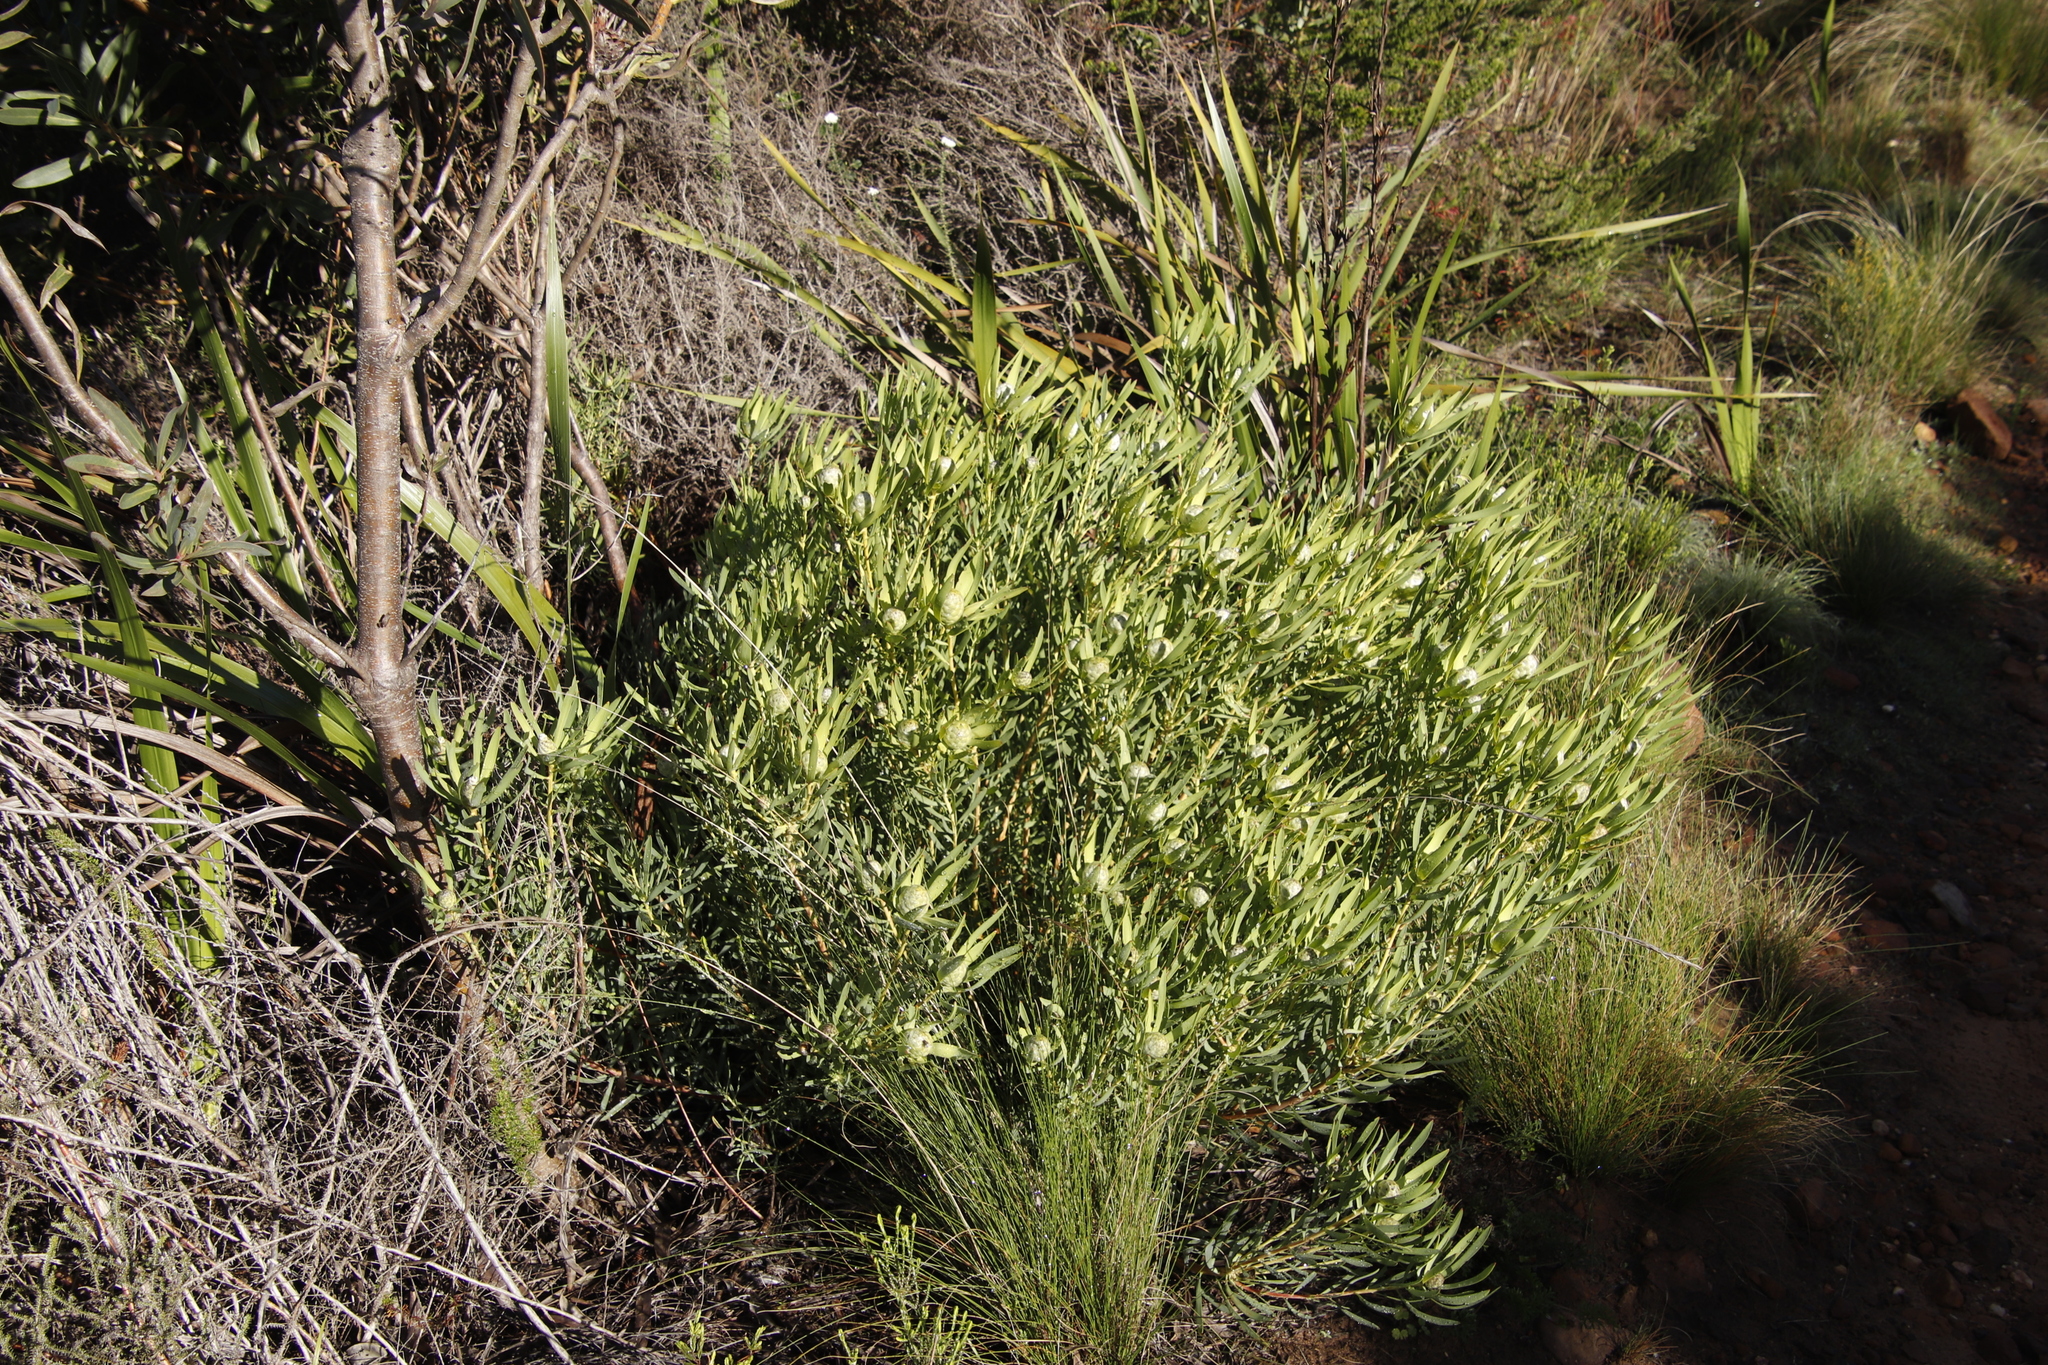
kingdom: Plantae
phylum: Tracheophyta
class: Magnoliopsida
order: Proteales
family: Proteaceae
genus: Leucadendron
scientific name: Leucadendron salignum
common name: Common sunshine conebush
